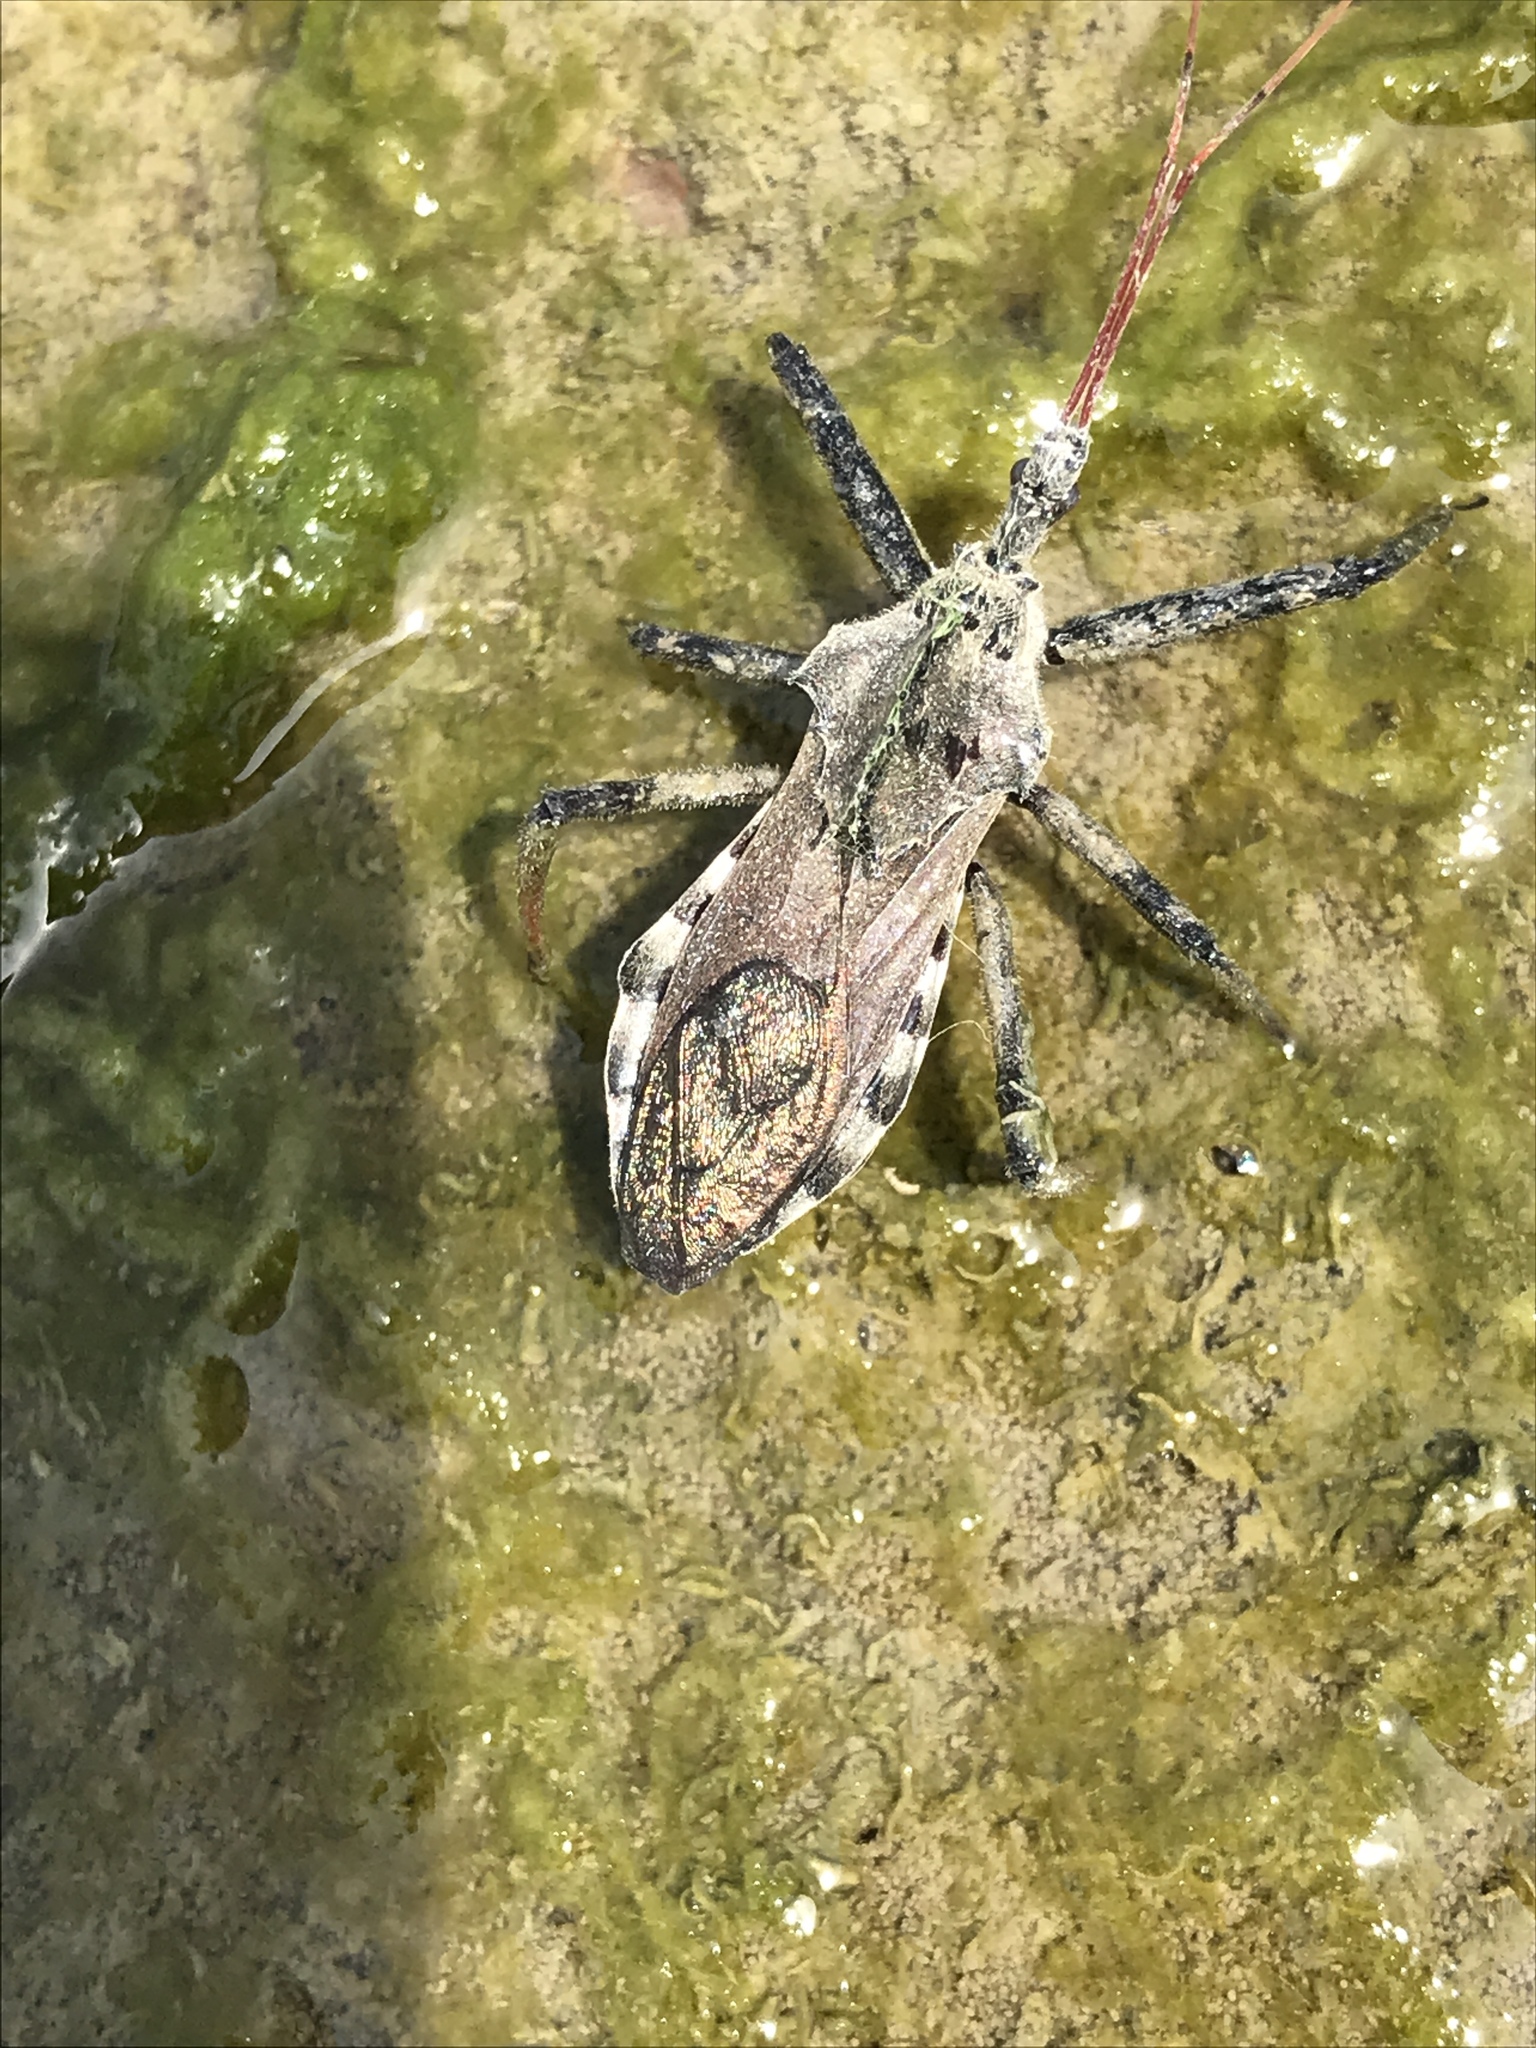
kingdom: Animalia
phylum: Arthropoda
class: Insecta
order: Hemiptera
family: Reduviidae
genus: Arilus
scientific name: Arilus cristatus
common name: North american wheel bug
